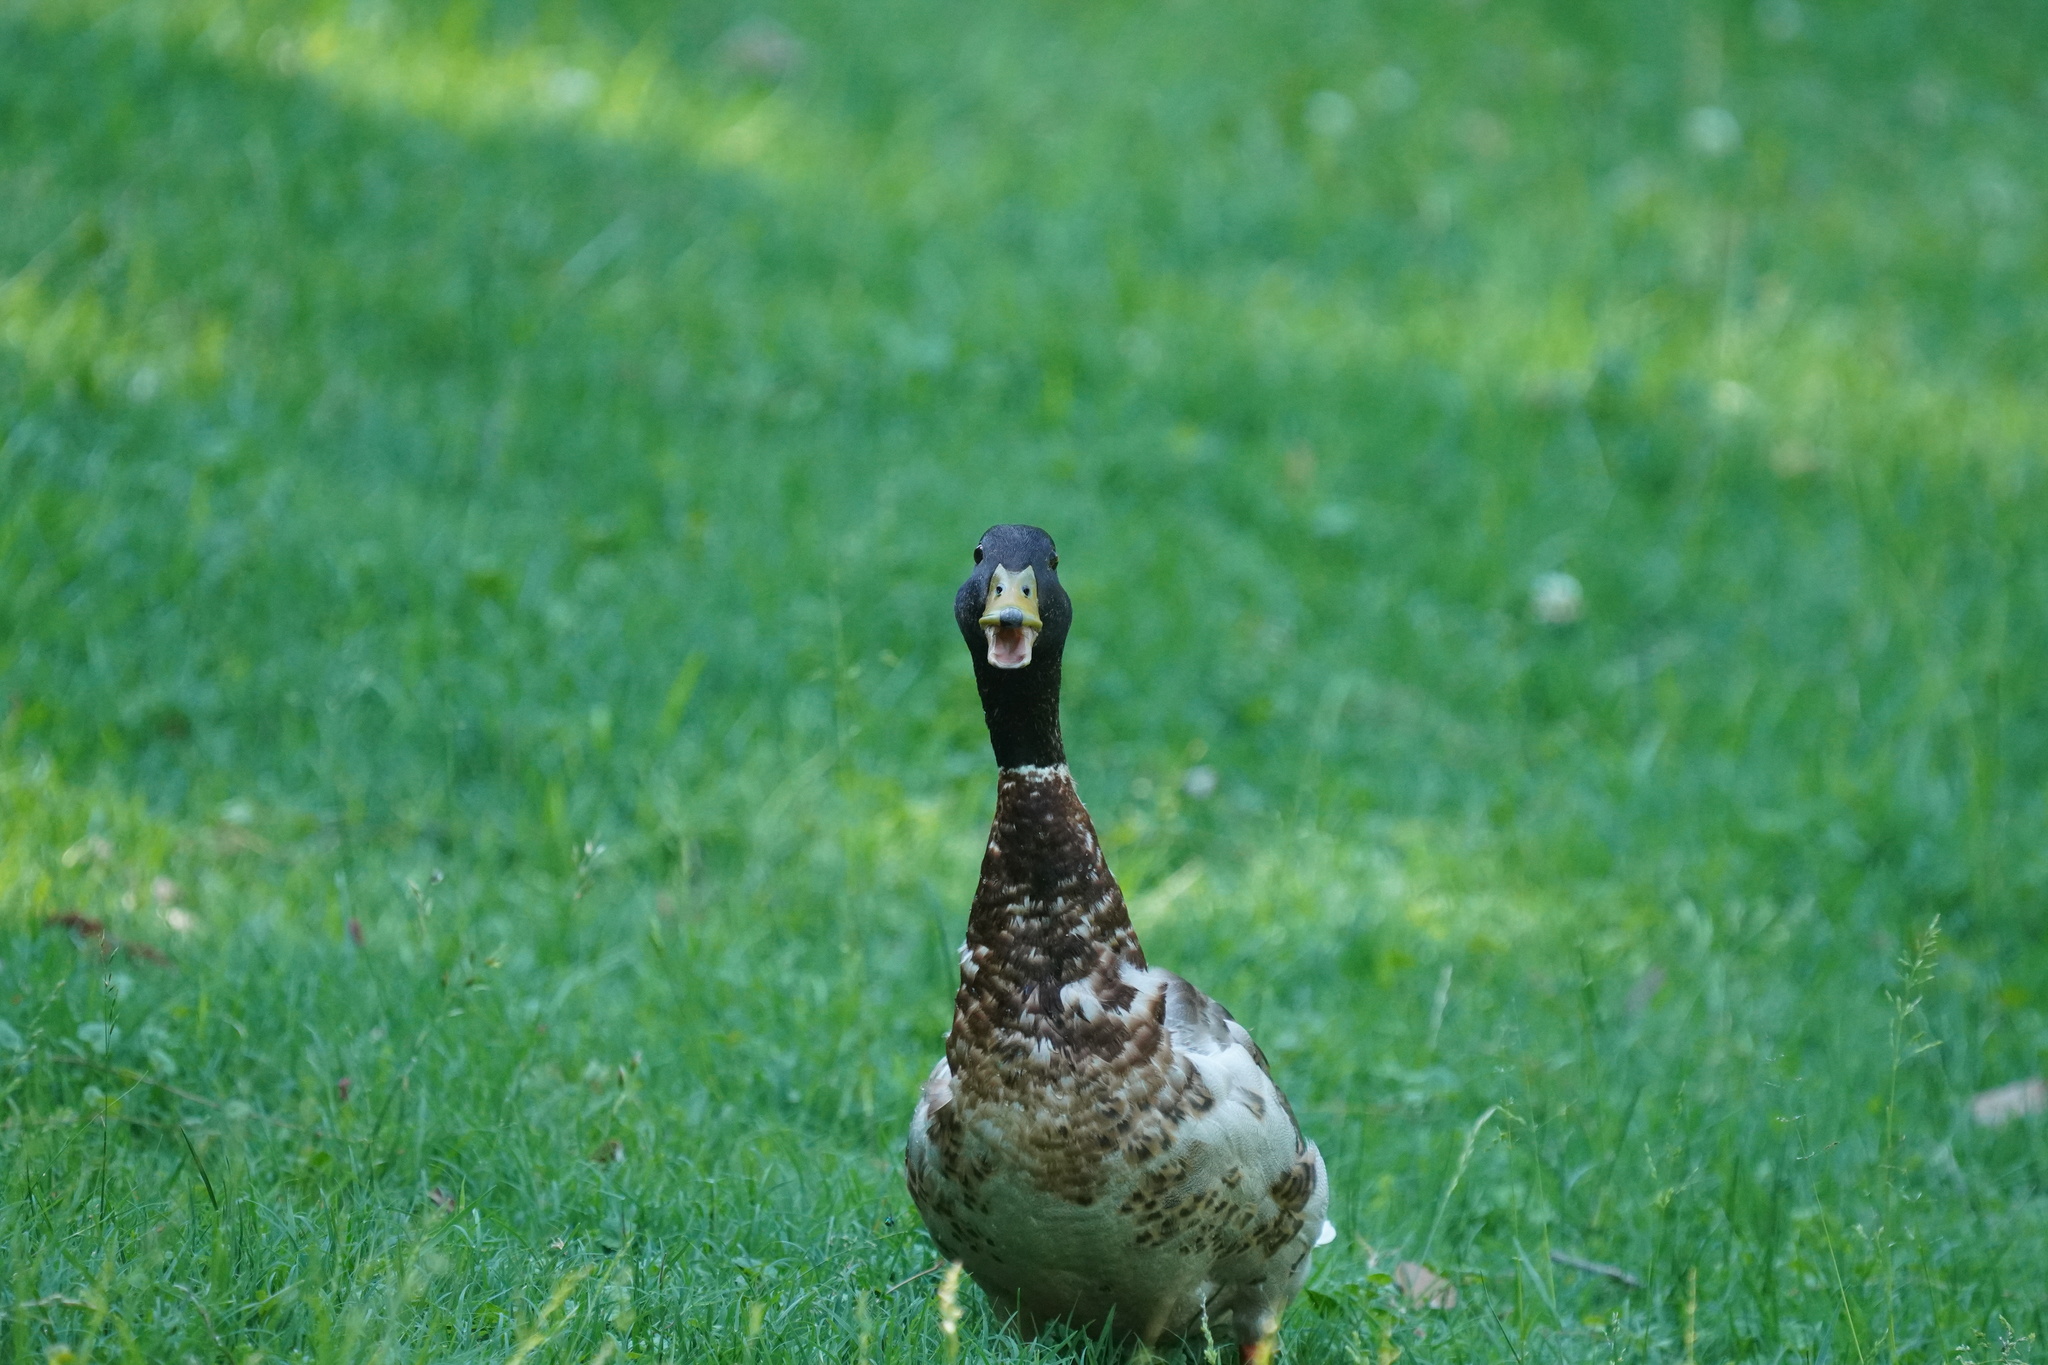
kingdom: Animalia
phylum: Chordata
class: Aves
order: Anseriformes
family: Anatidae
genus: Anas
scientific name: Anas platyrhynchos
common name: Mallard
